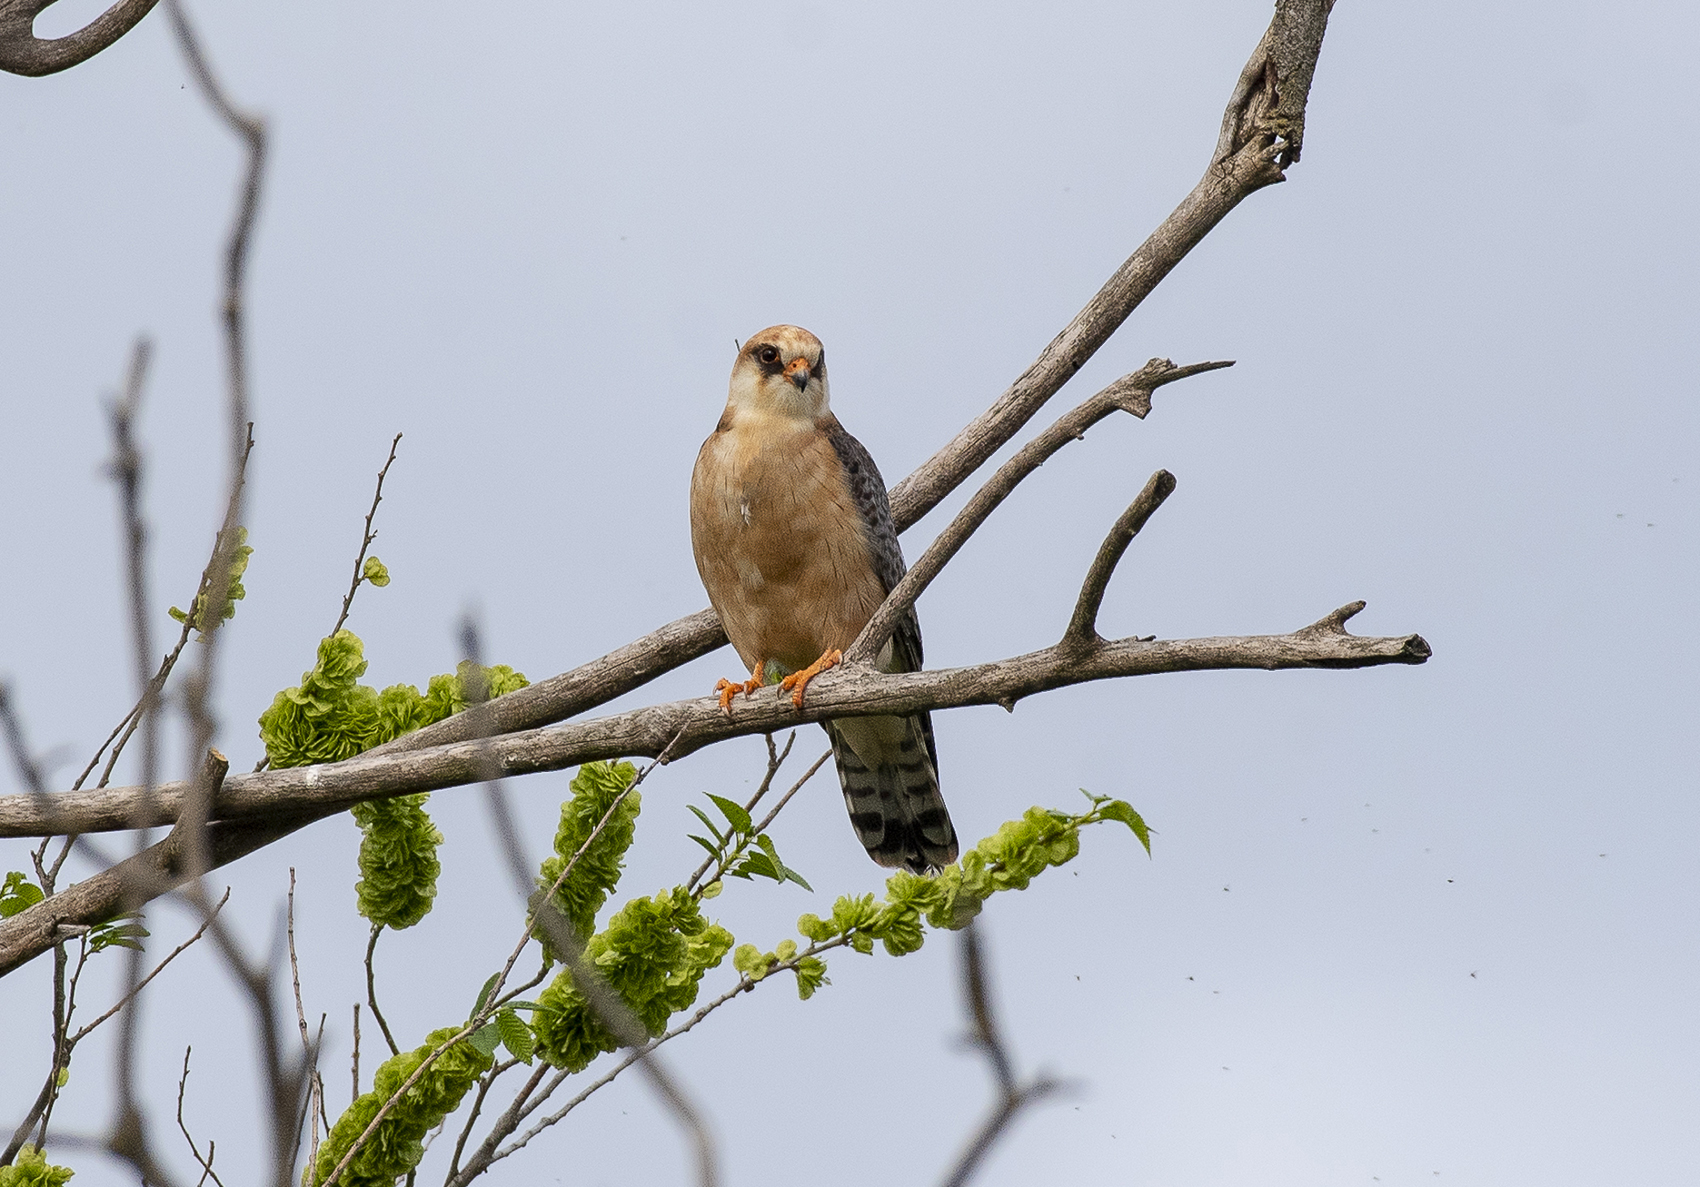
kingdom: Animalia
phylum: Chordata
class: Aves
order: Falconiformes
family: Falconidae
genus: Falco
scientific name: Falco vespertinus
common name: Red-footed falcon
